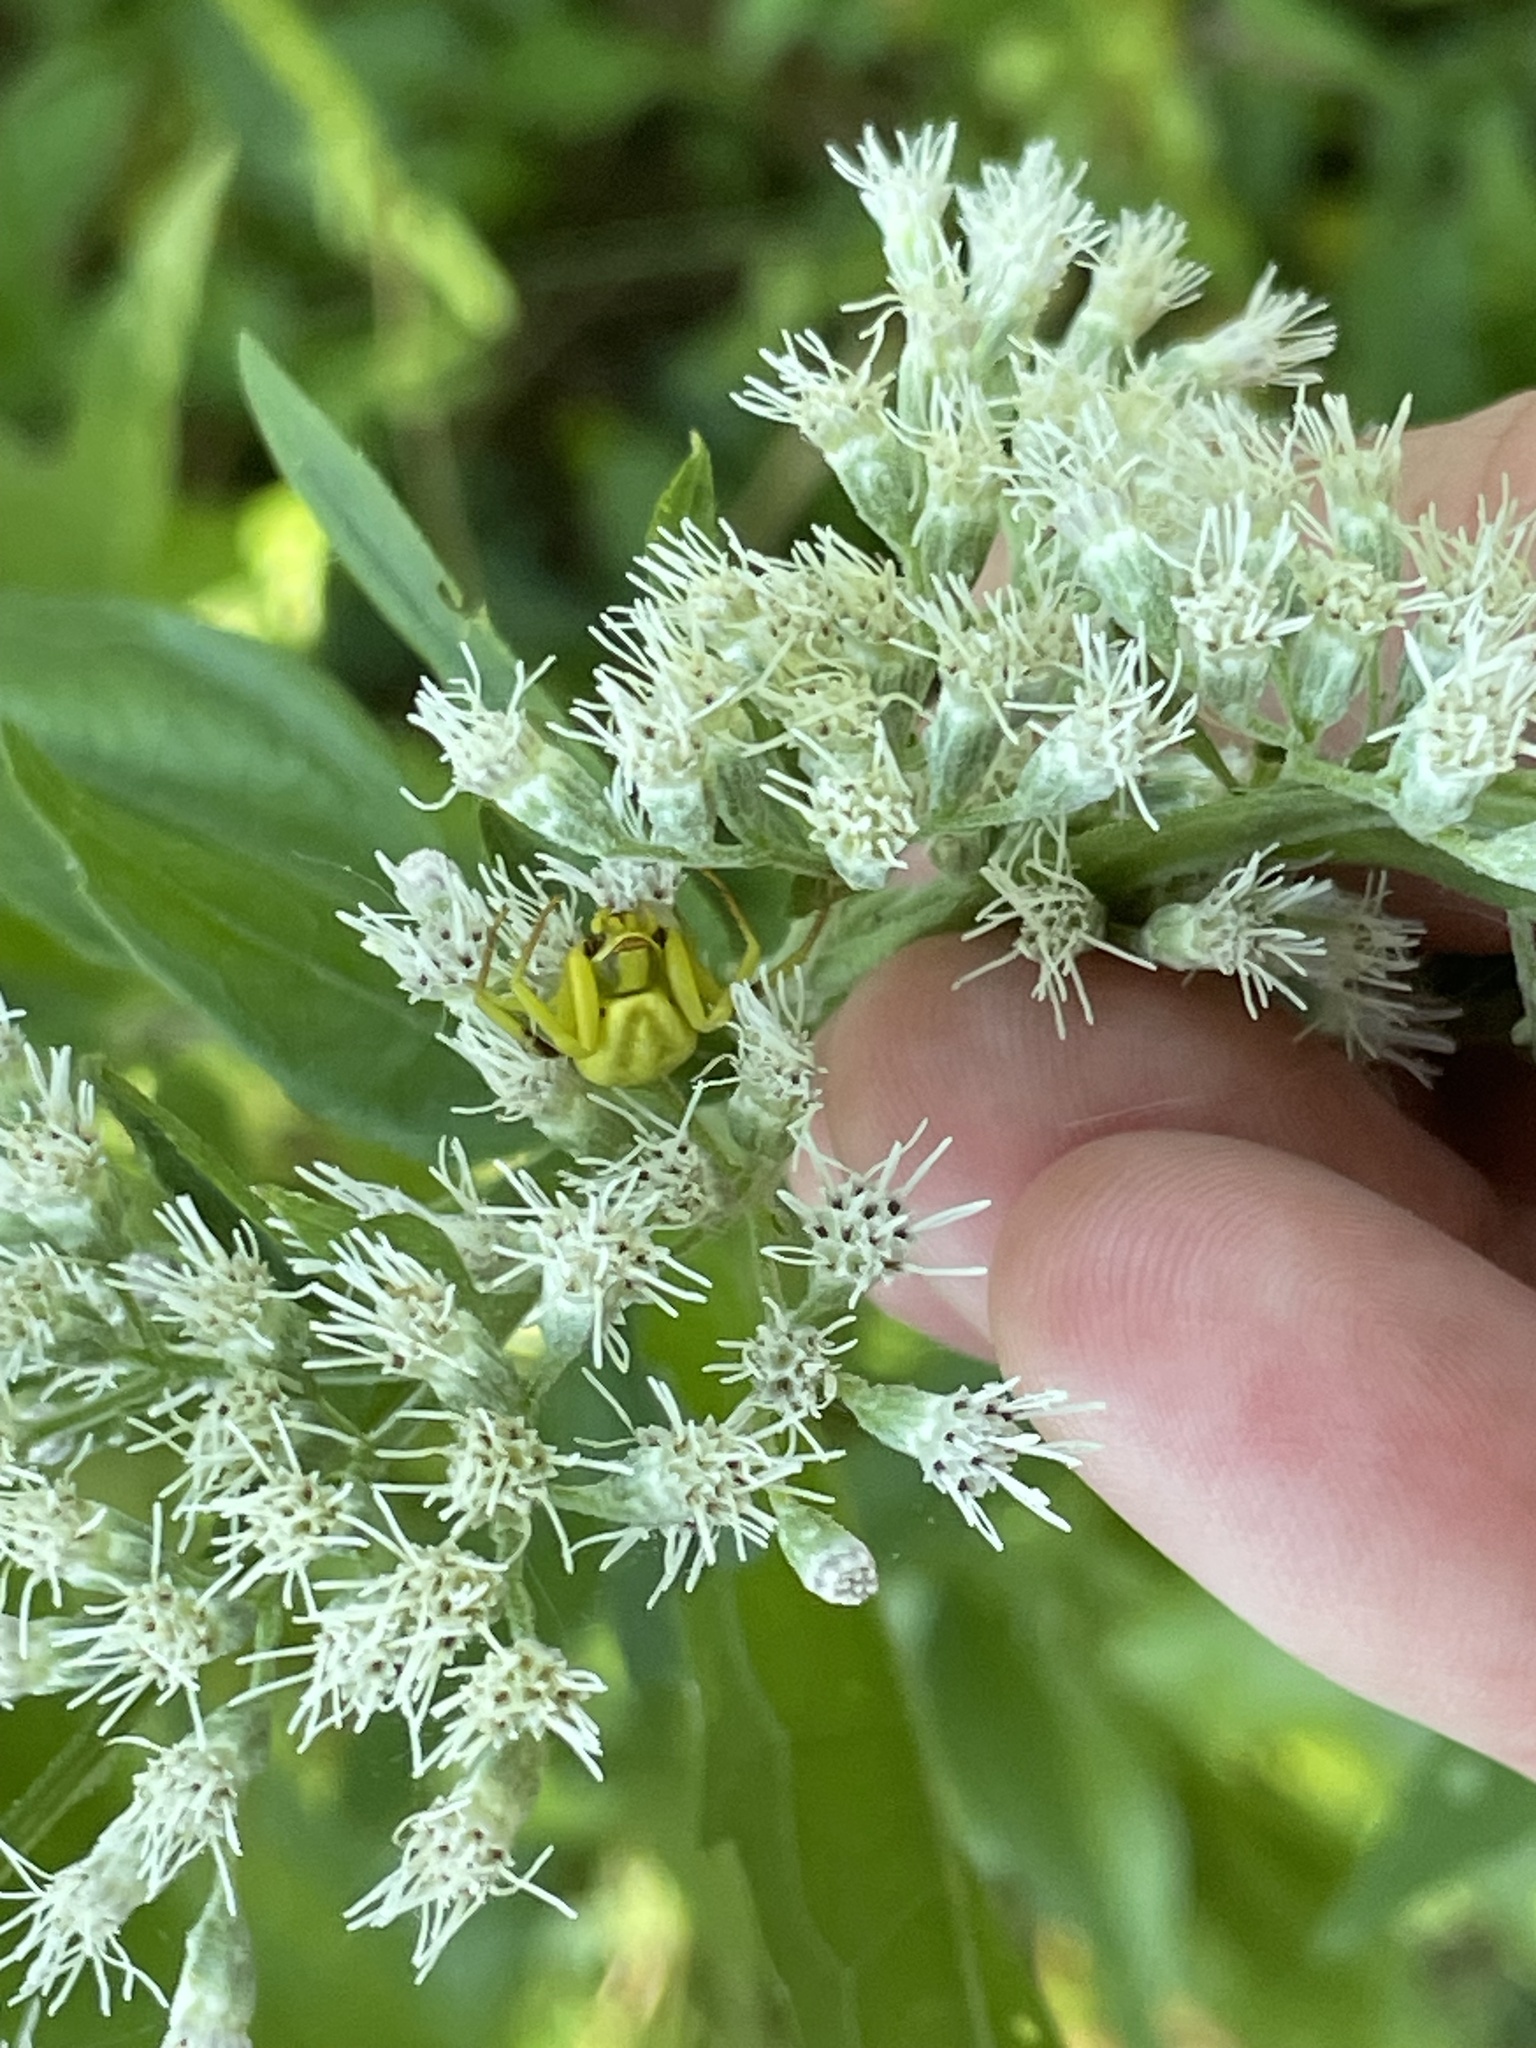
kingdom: Animalia
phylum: Arthropoda
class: Arachnida
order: Araneae
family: Thomisidae
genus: Misumenoides
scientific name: Misumenoides formosipes
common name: White-banded crab spider
